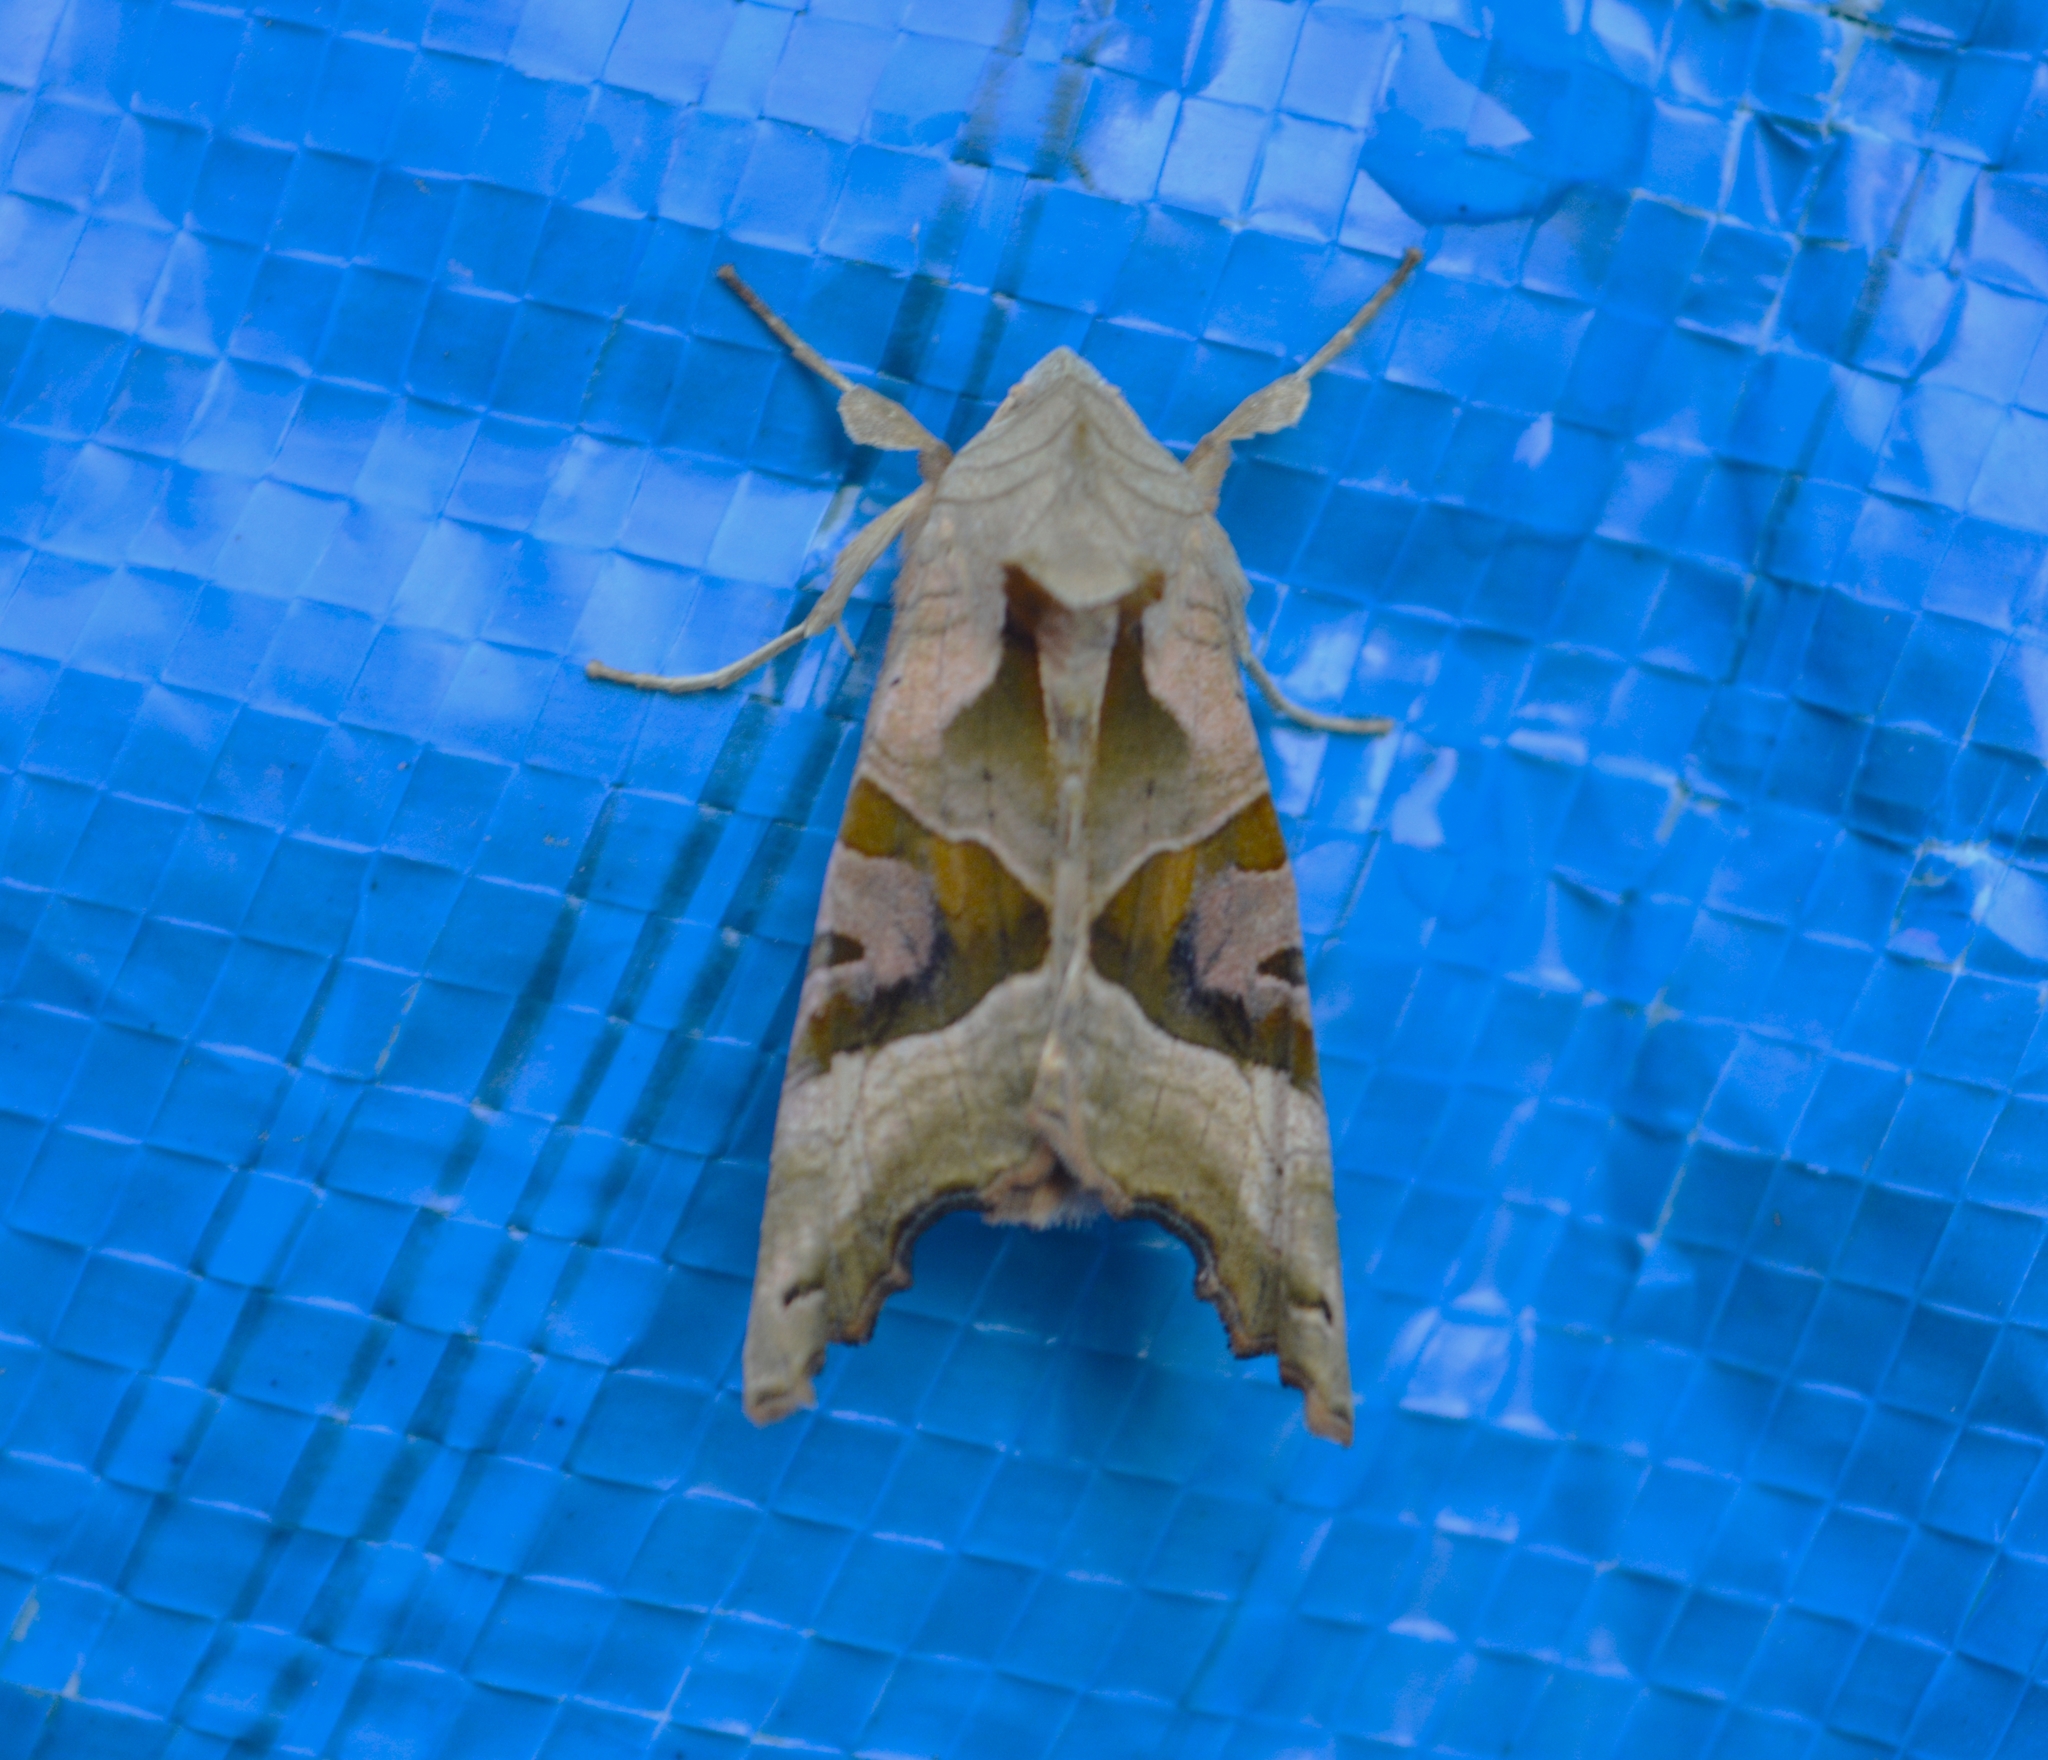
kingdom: Animalia
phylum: Arthropoda
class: Insecta
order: Lepidoptera
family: Noctuidae
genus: Phlogophora
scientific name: Phlogophora meticulosa
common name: Angle shades
